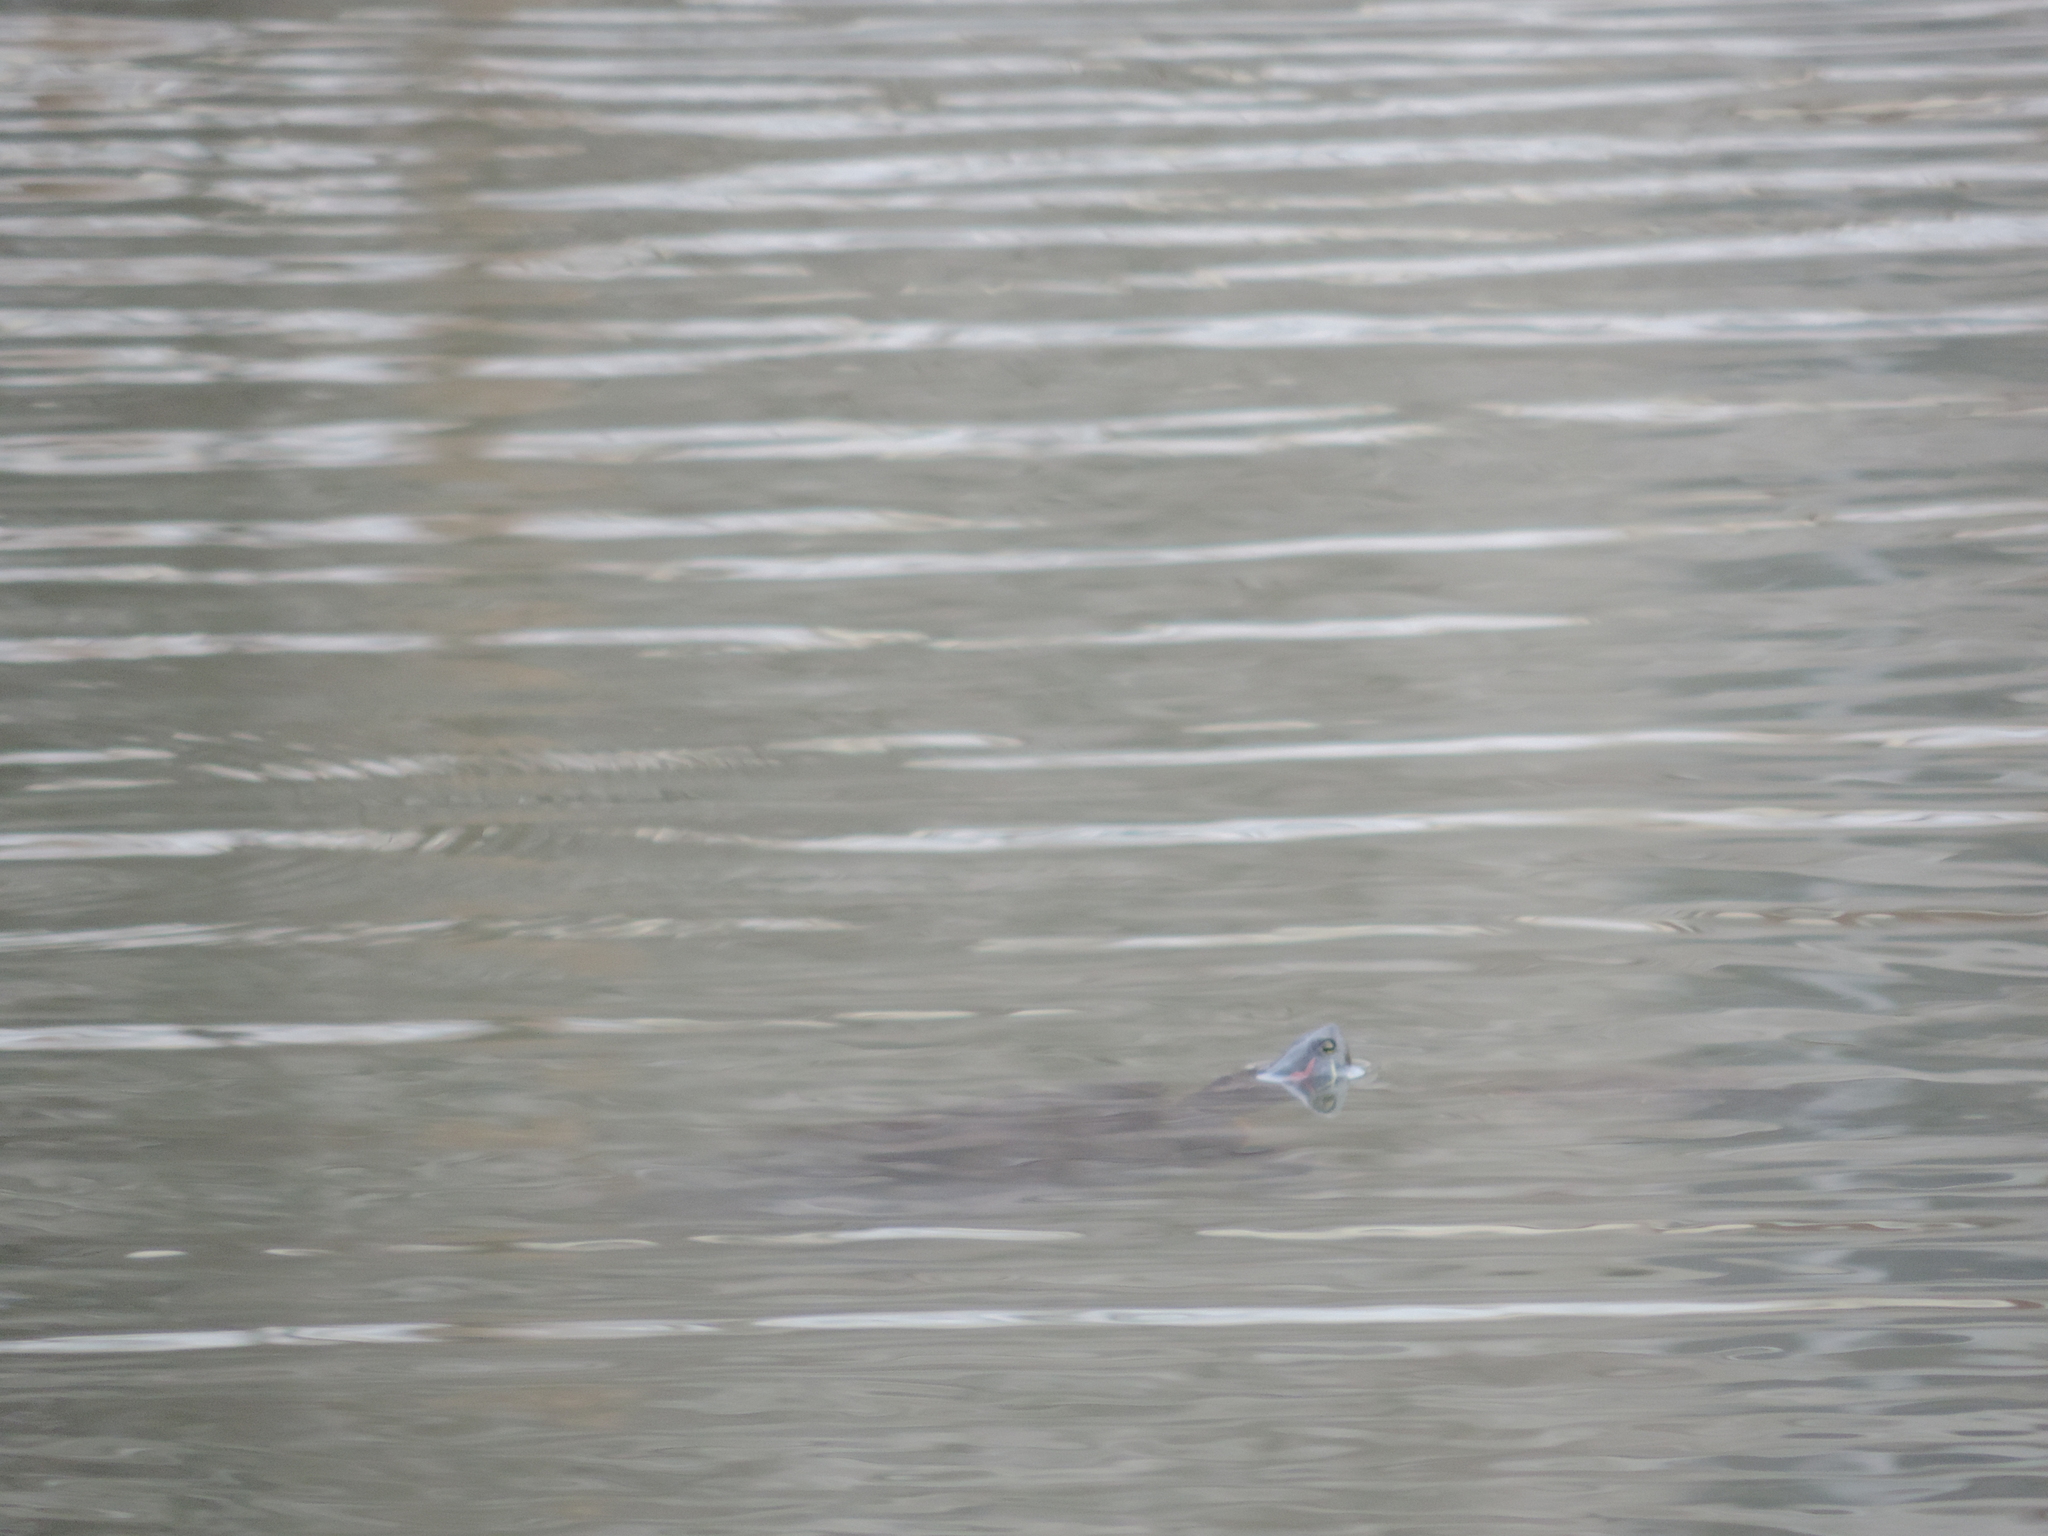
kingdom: Animalia
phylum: Chordata
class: Testudines
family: Emydidae
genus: Trachemys
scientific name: Trachemys scripta
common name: Slider
